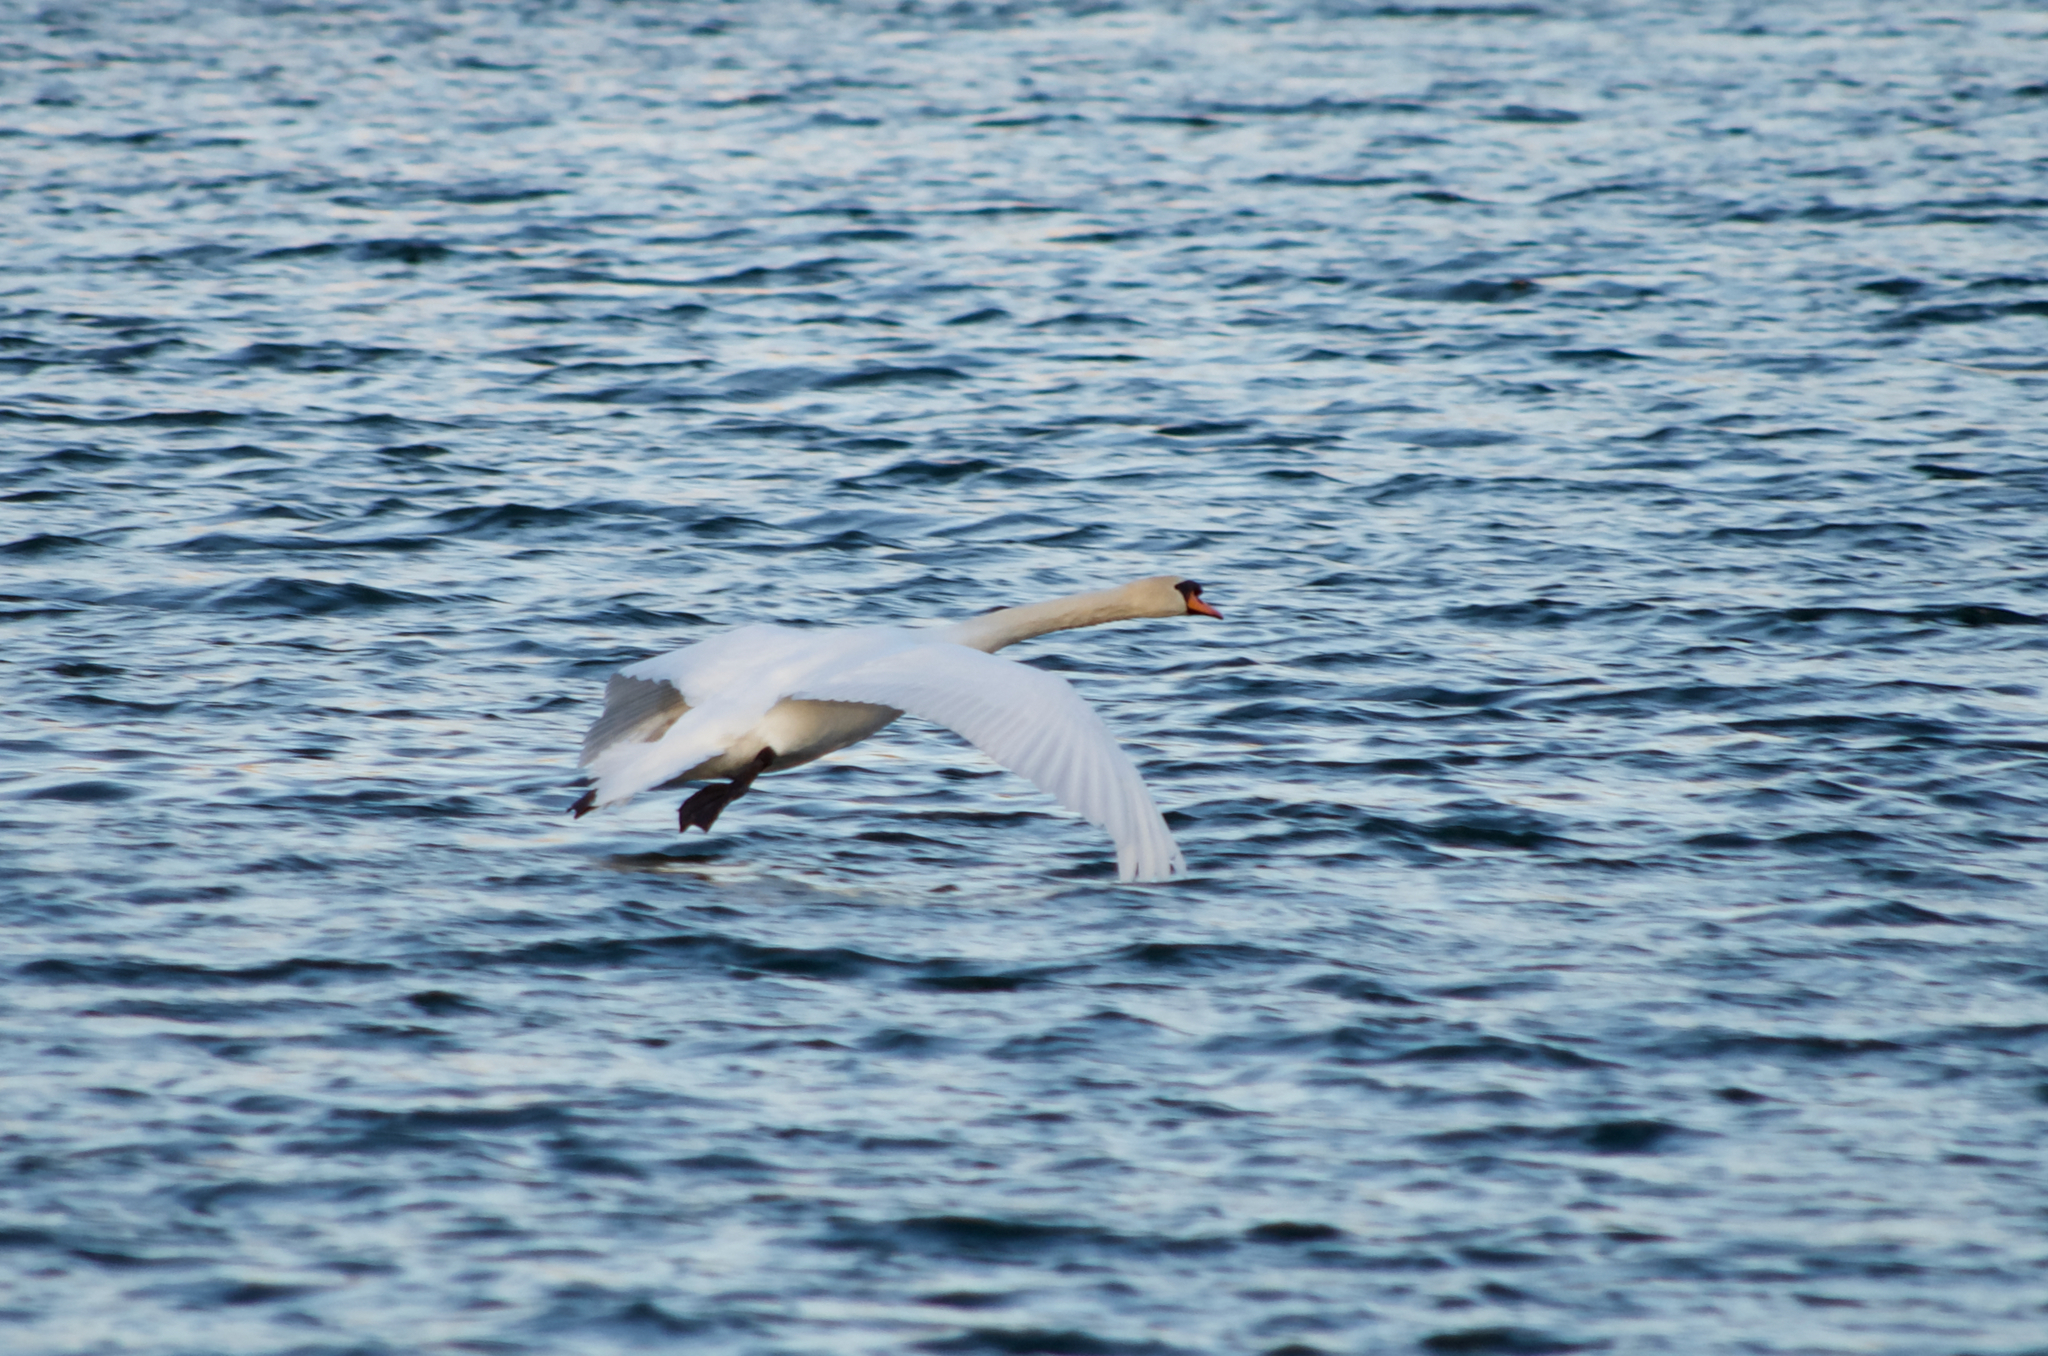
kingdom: Animalia
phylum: Chordata
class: Aves
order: Anseriformes
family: Anatidae
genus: Cygnus
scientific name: Cygnus olor
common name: Mute swan
